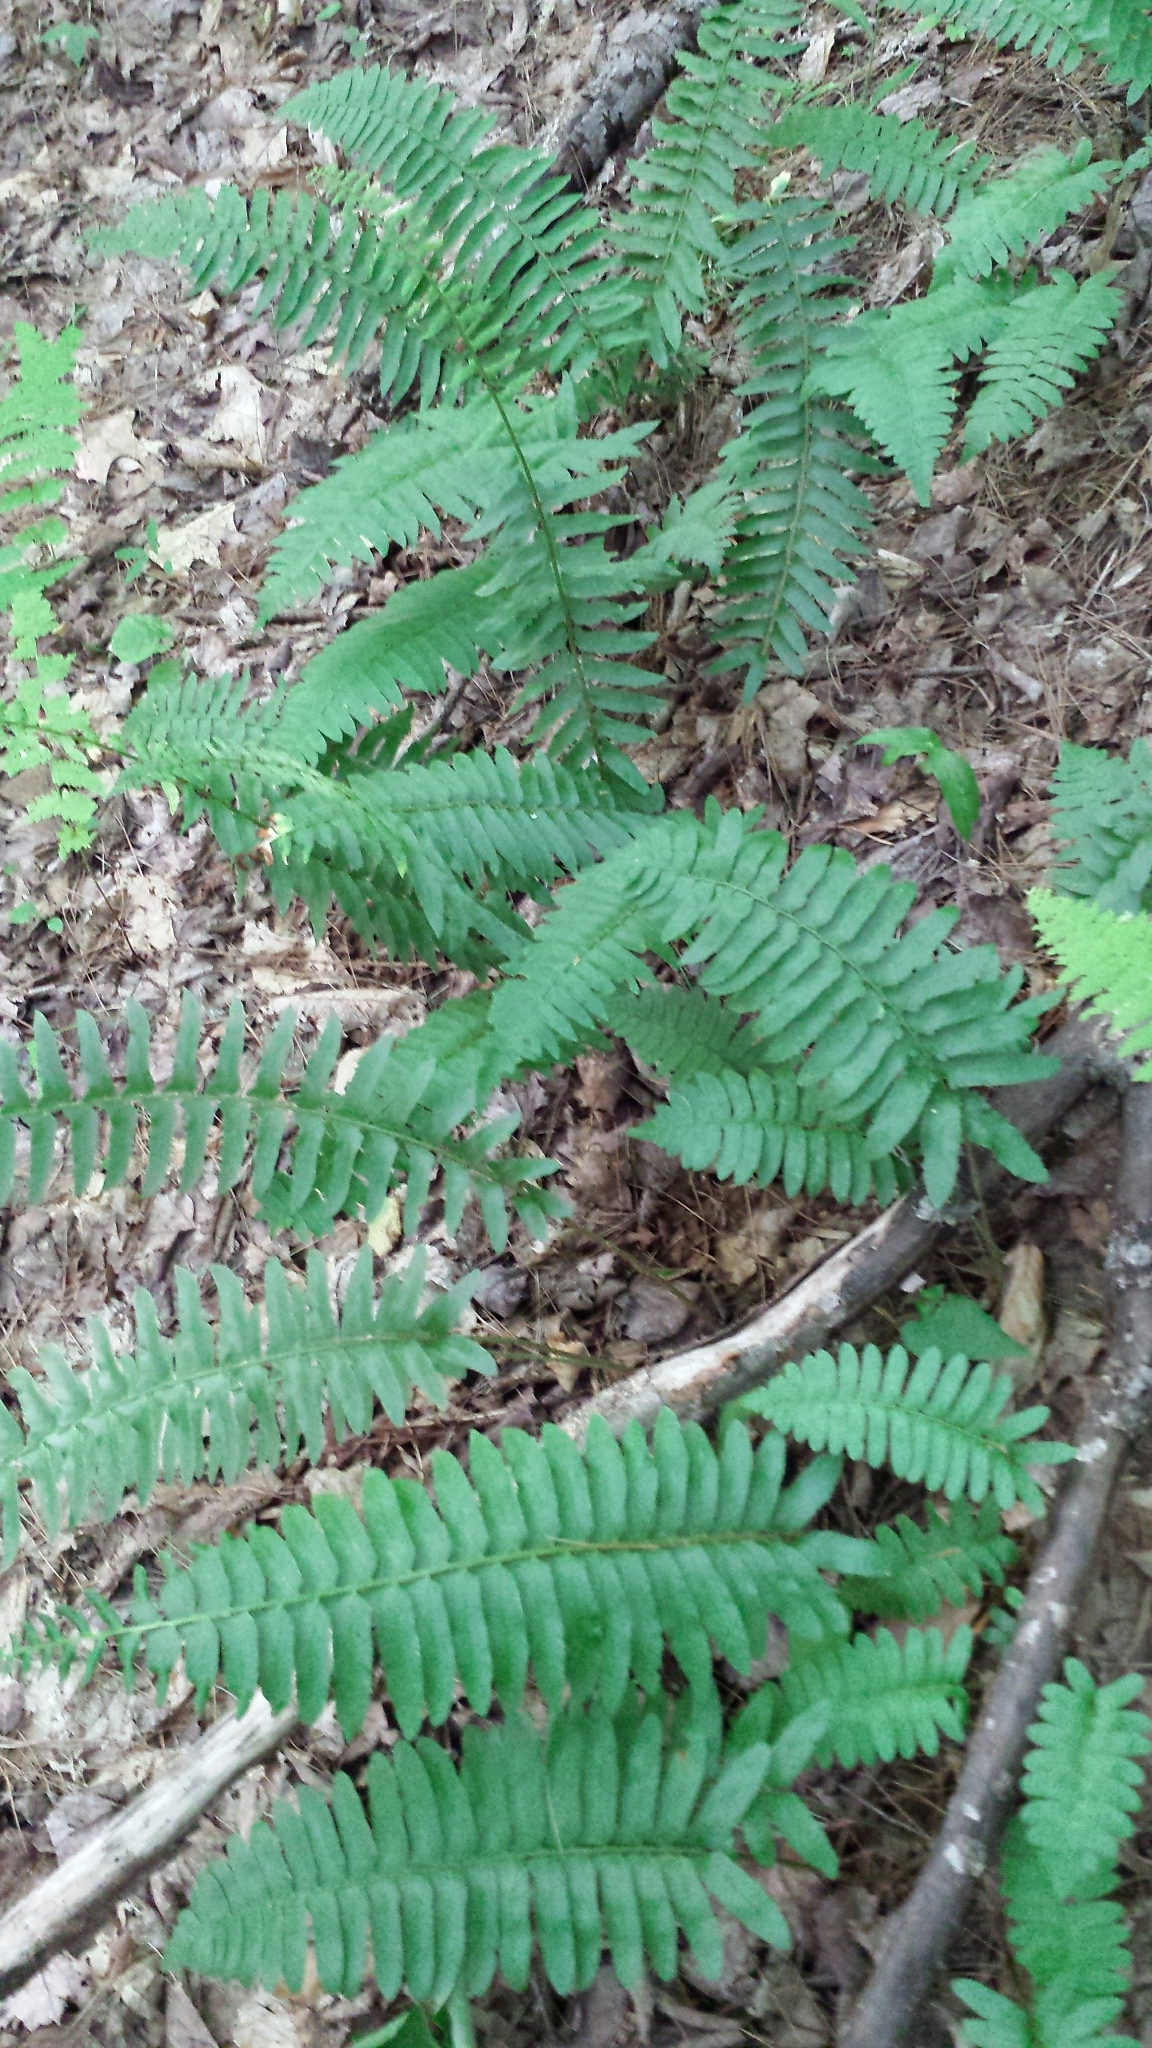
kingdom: Plantae
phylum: Tracheophyta
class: Polypodiopsida
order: Polypodiales
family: Dryopteridaceae
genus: Polystichum
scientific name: Polystichum acrostichoides
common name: Christmas fern
